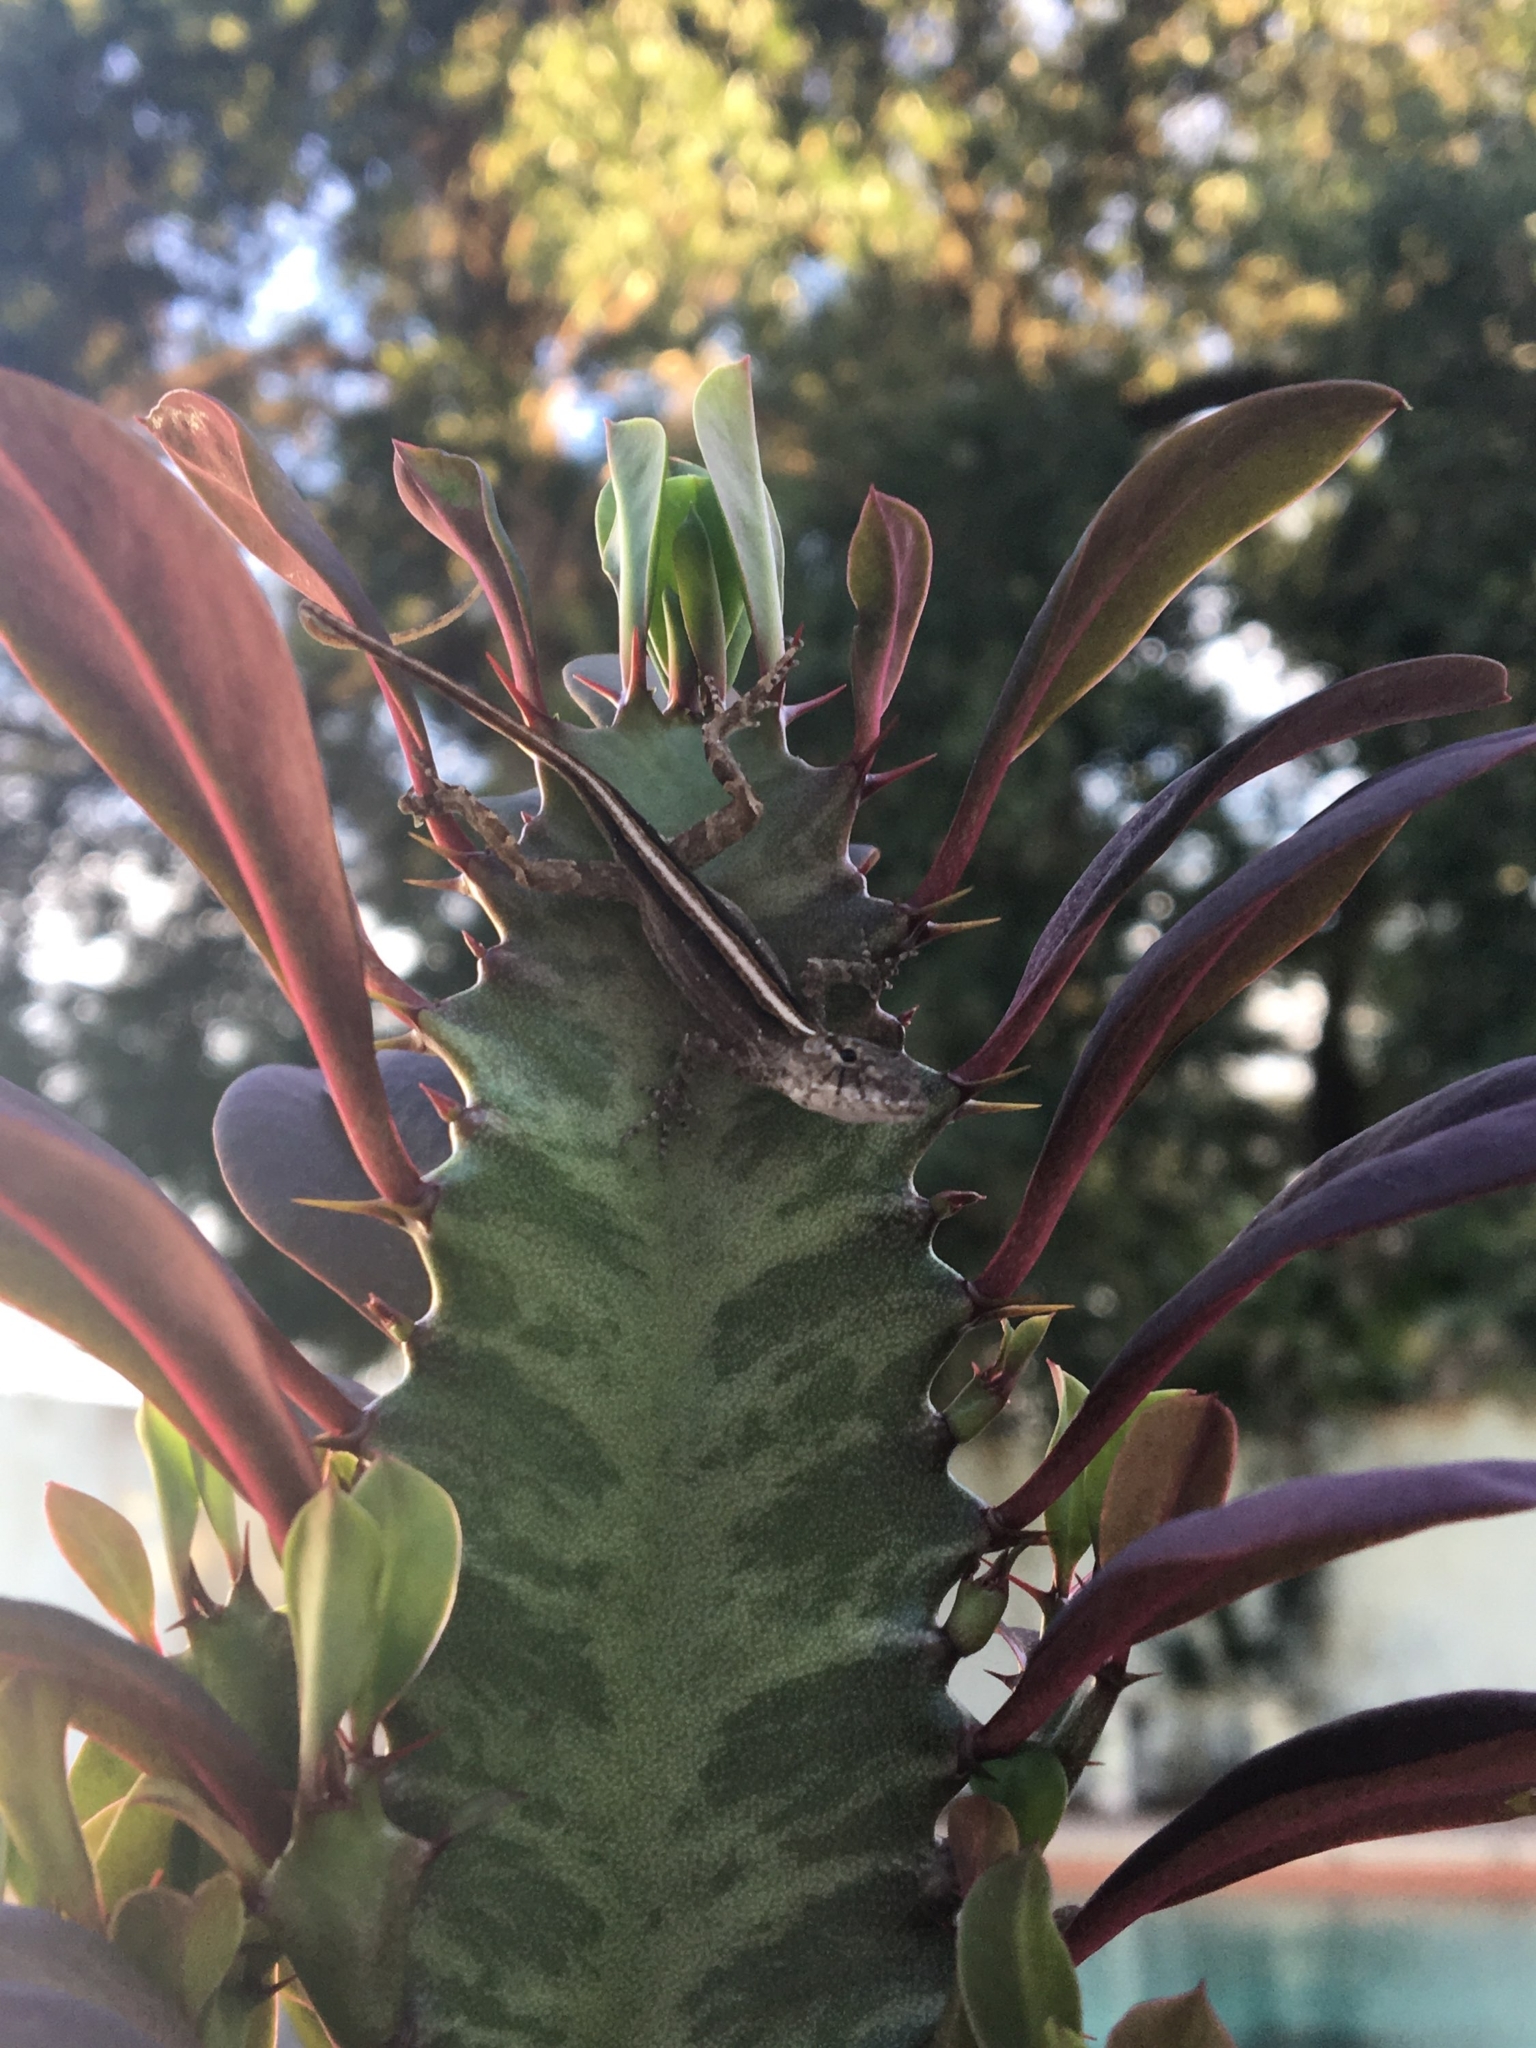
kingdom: Animalia
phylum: Chordata
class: Squamata
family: Dactyloidae
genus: Anolis
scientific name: Anolis sagrei
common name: Brown anole
